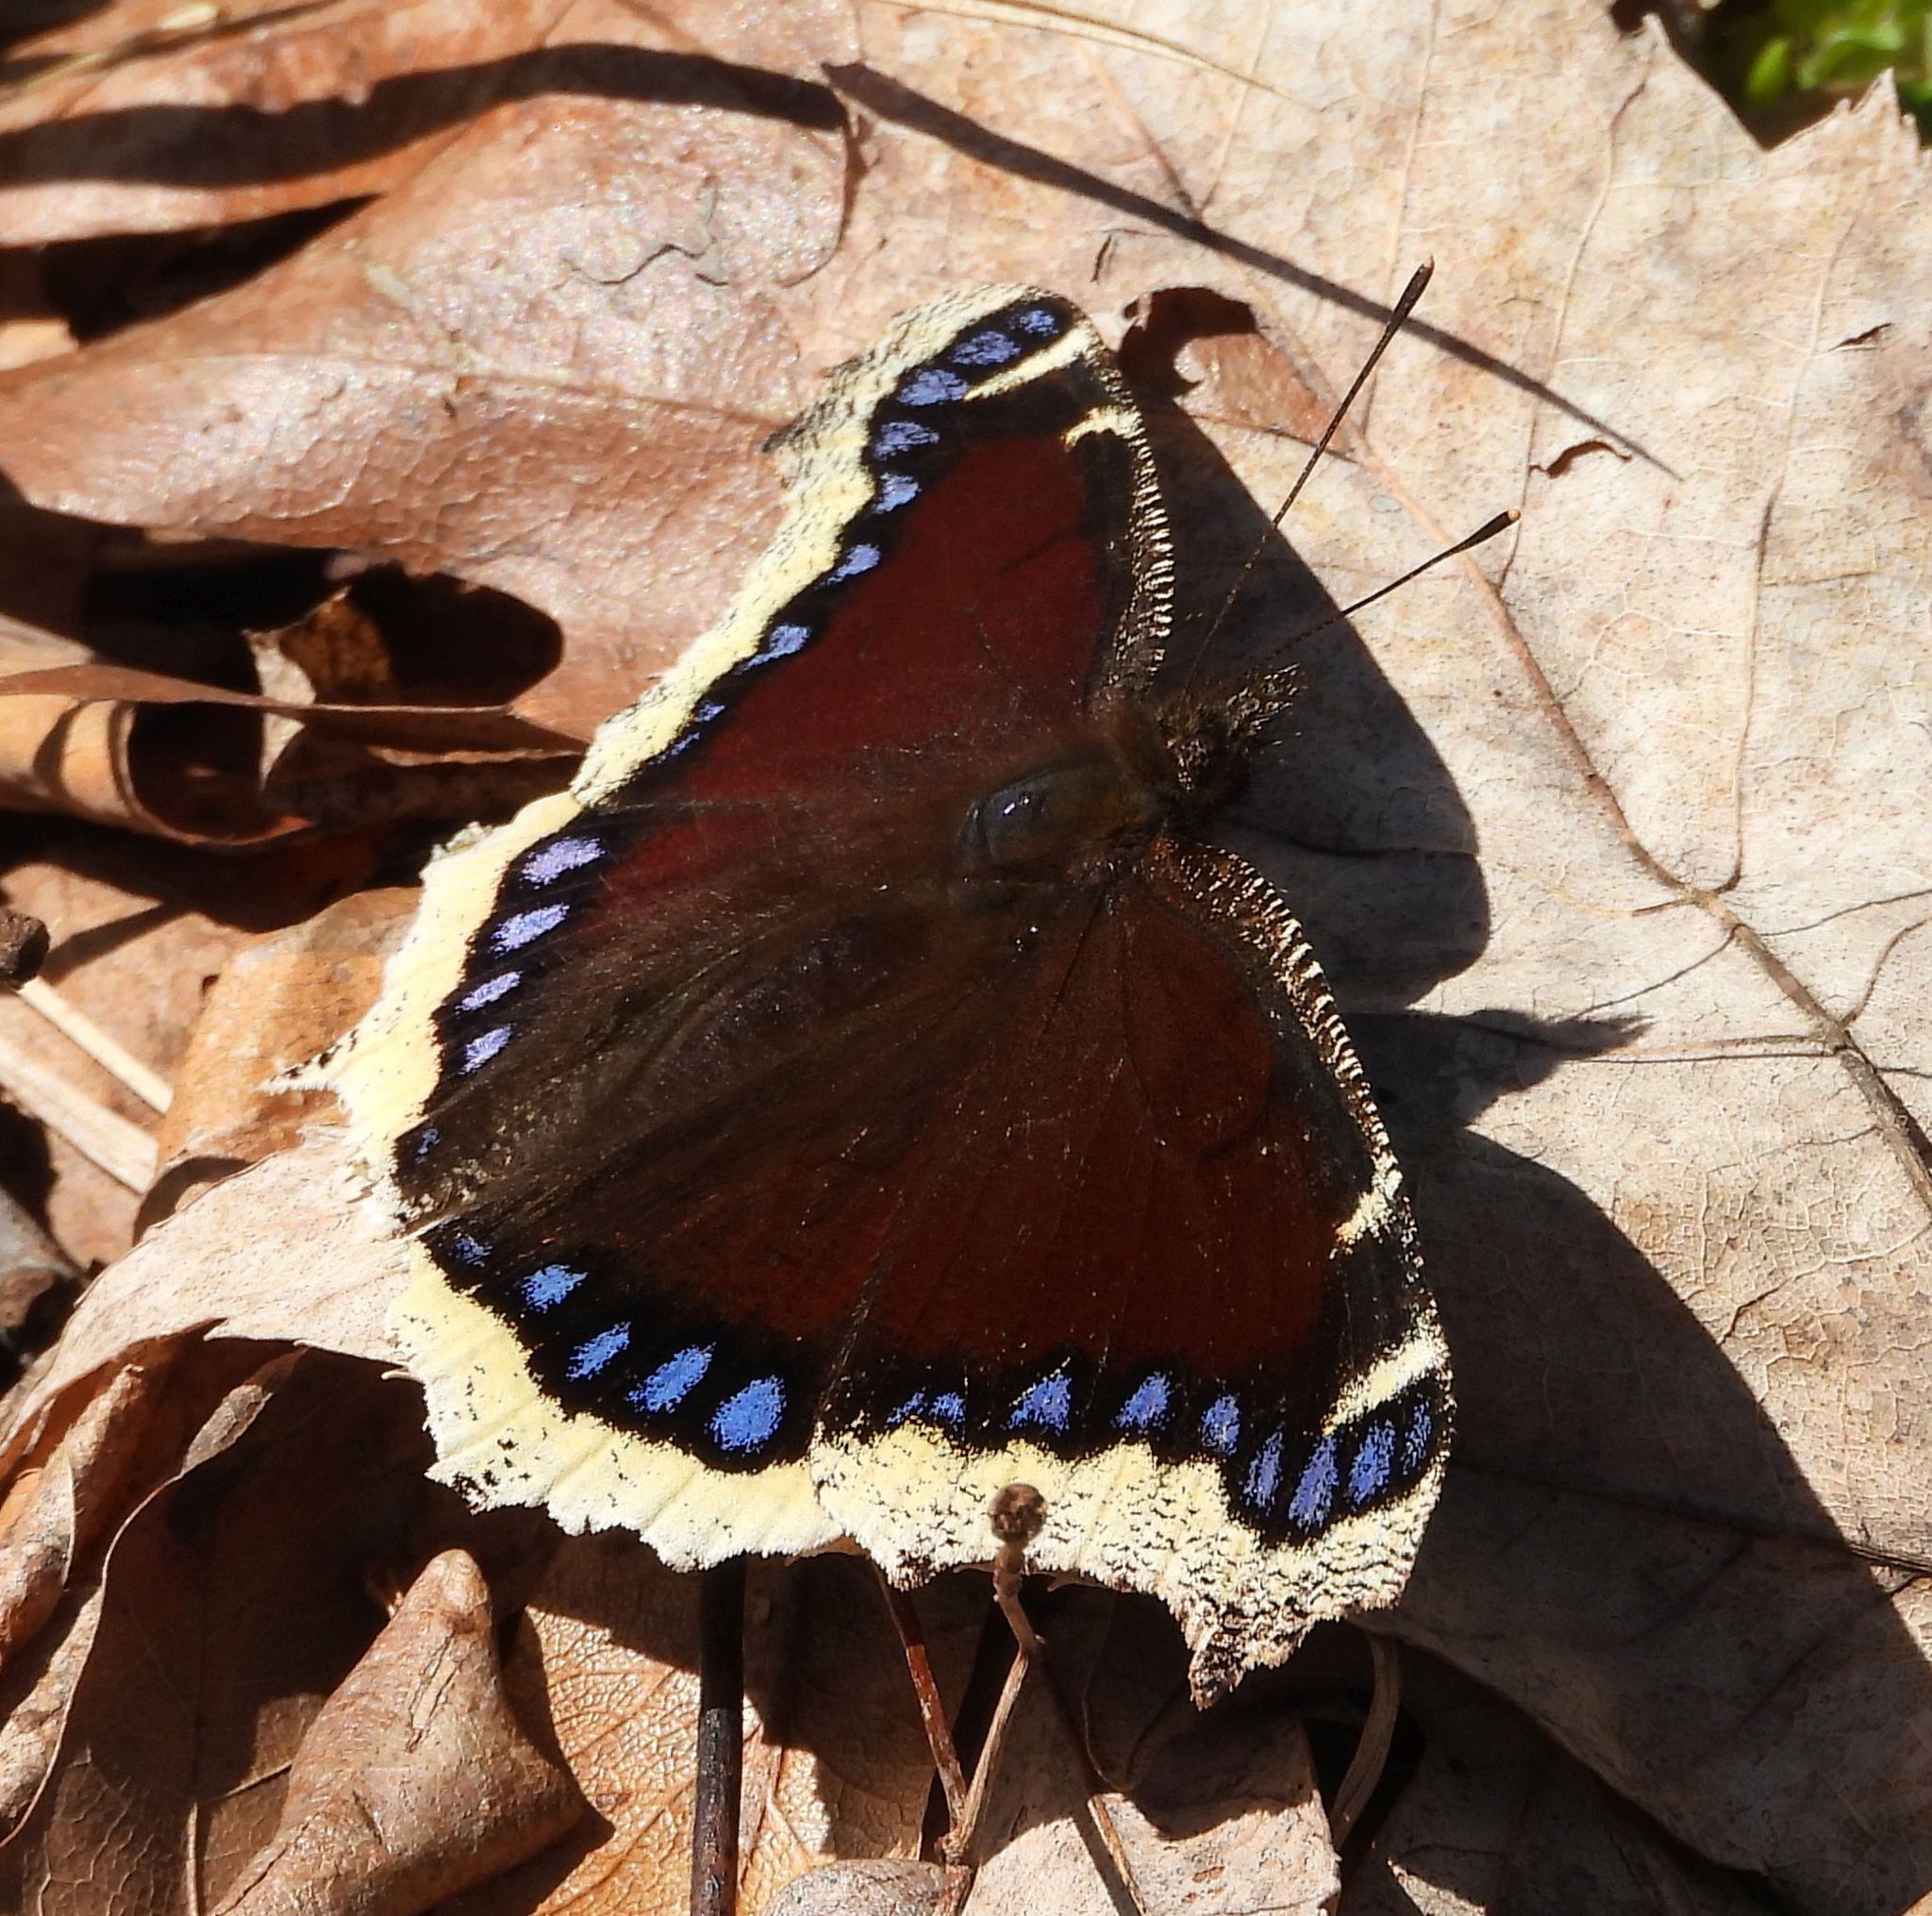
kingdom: Animalia
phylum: Arthropoda
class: Insecta
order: Lepidoptera
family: Nymphalidae
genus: Nymphalis
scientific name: Nymphalis antiopa
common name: Camberwell beauty
